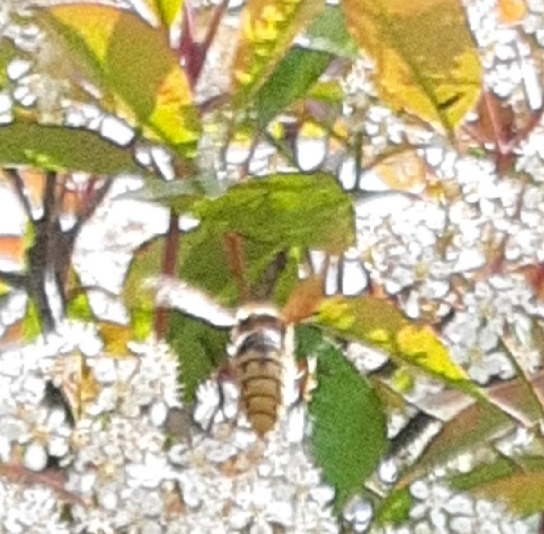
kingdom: Animalia
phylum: Arthropoda
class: Insecta
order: Hymenoptera
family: Vespidae
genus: Vespa
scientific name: Vespa crabro
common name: Hornet
